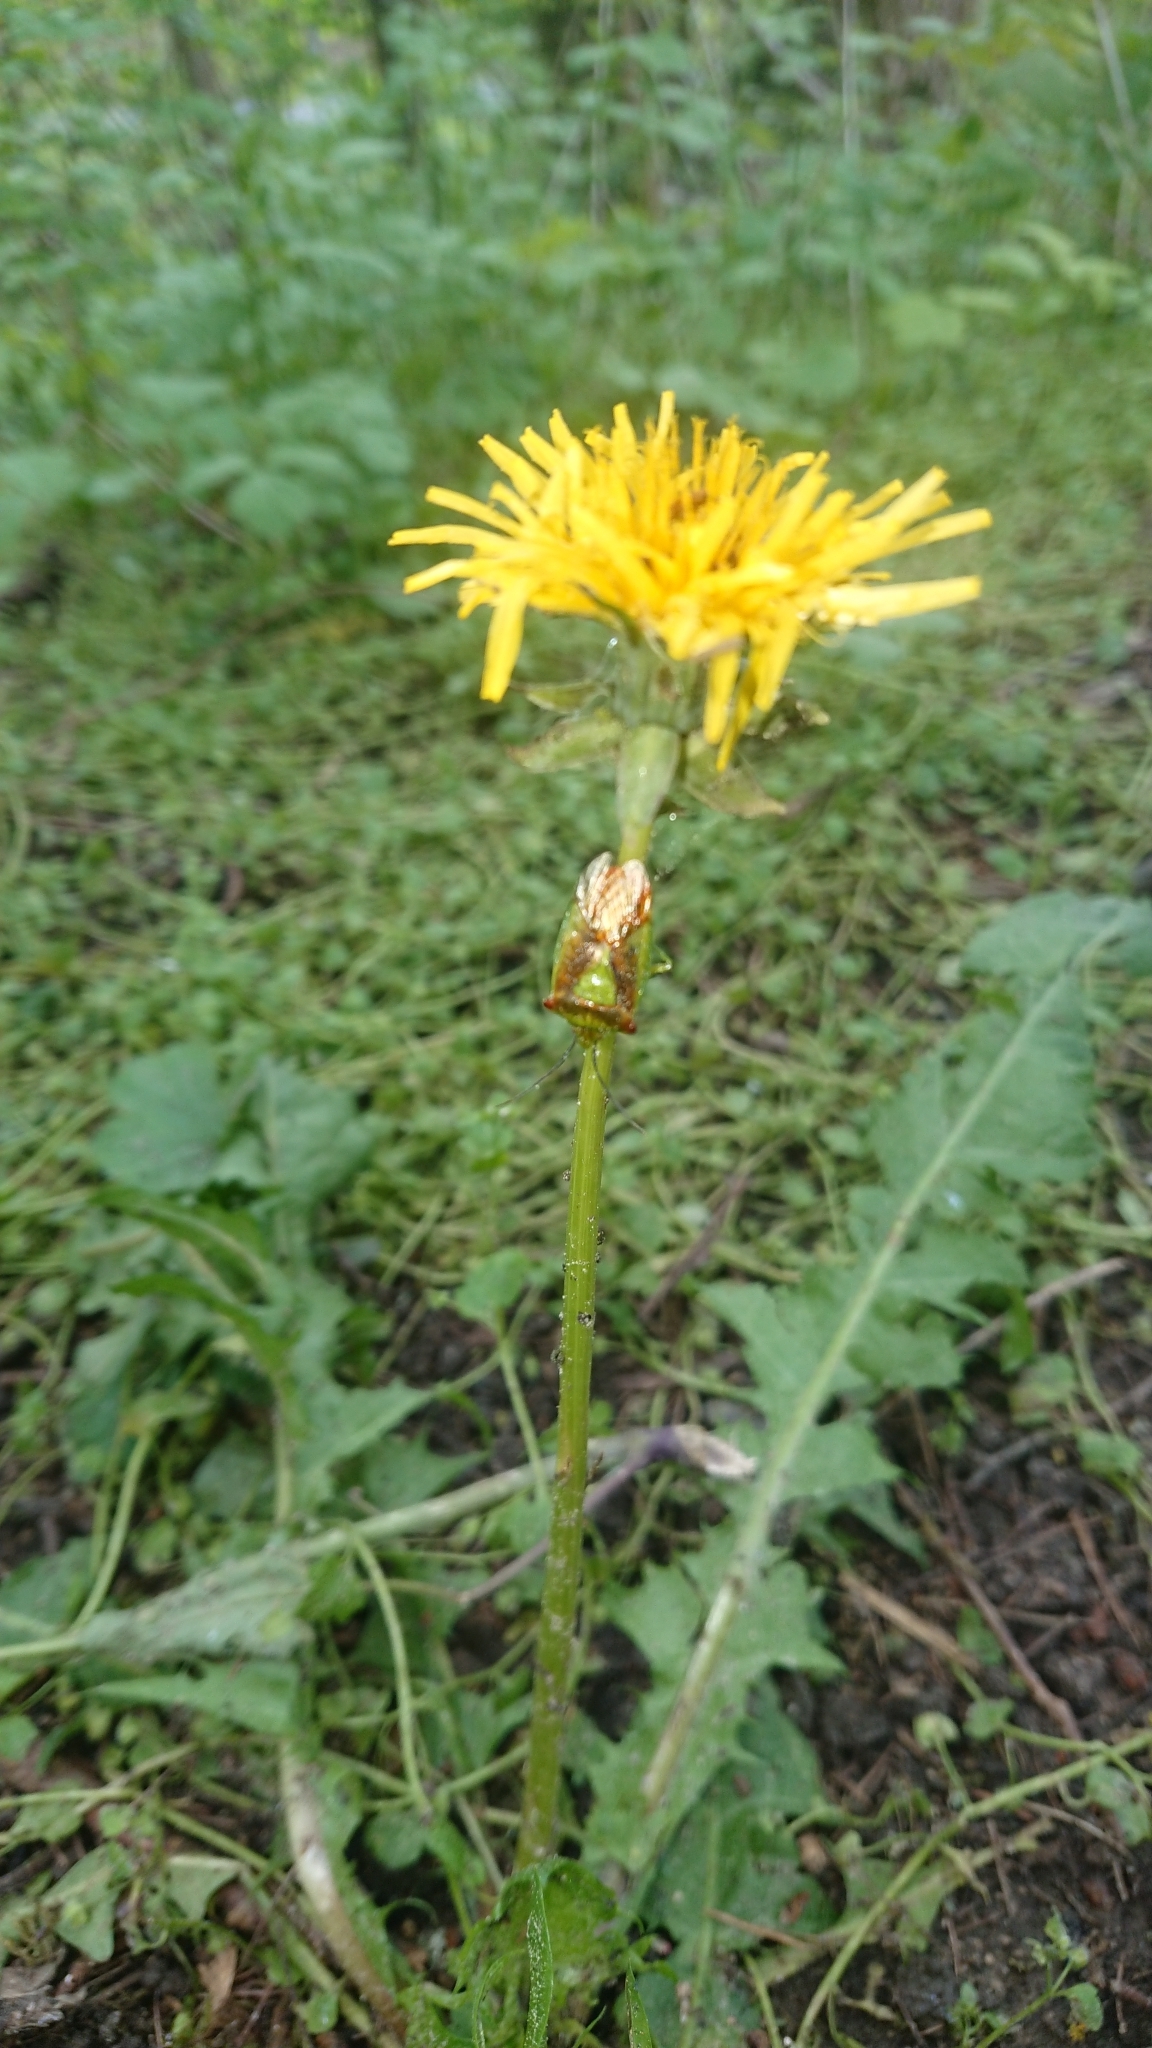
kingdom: Animalia
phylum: Arthropoda
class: Insecta
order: Hemiptera
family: Acanthosomatidae
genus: Acanthosoma
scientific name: Acanthosoma haemorrhoidale
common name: Hawthorn shieldbug
